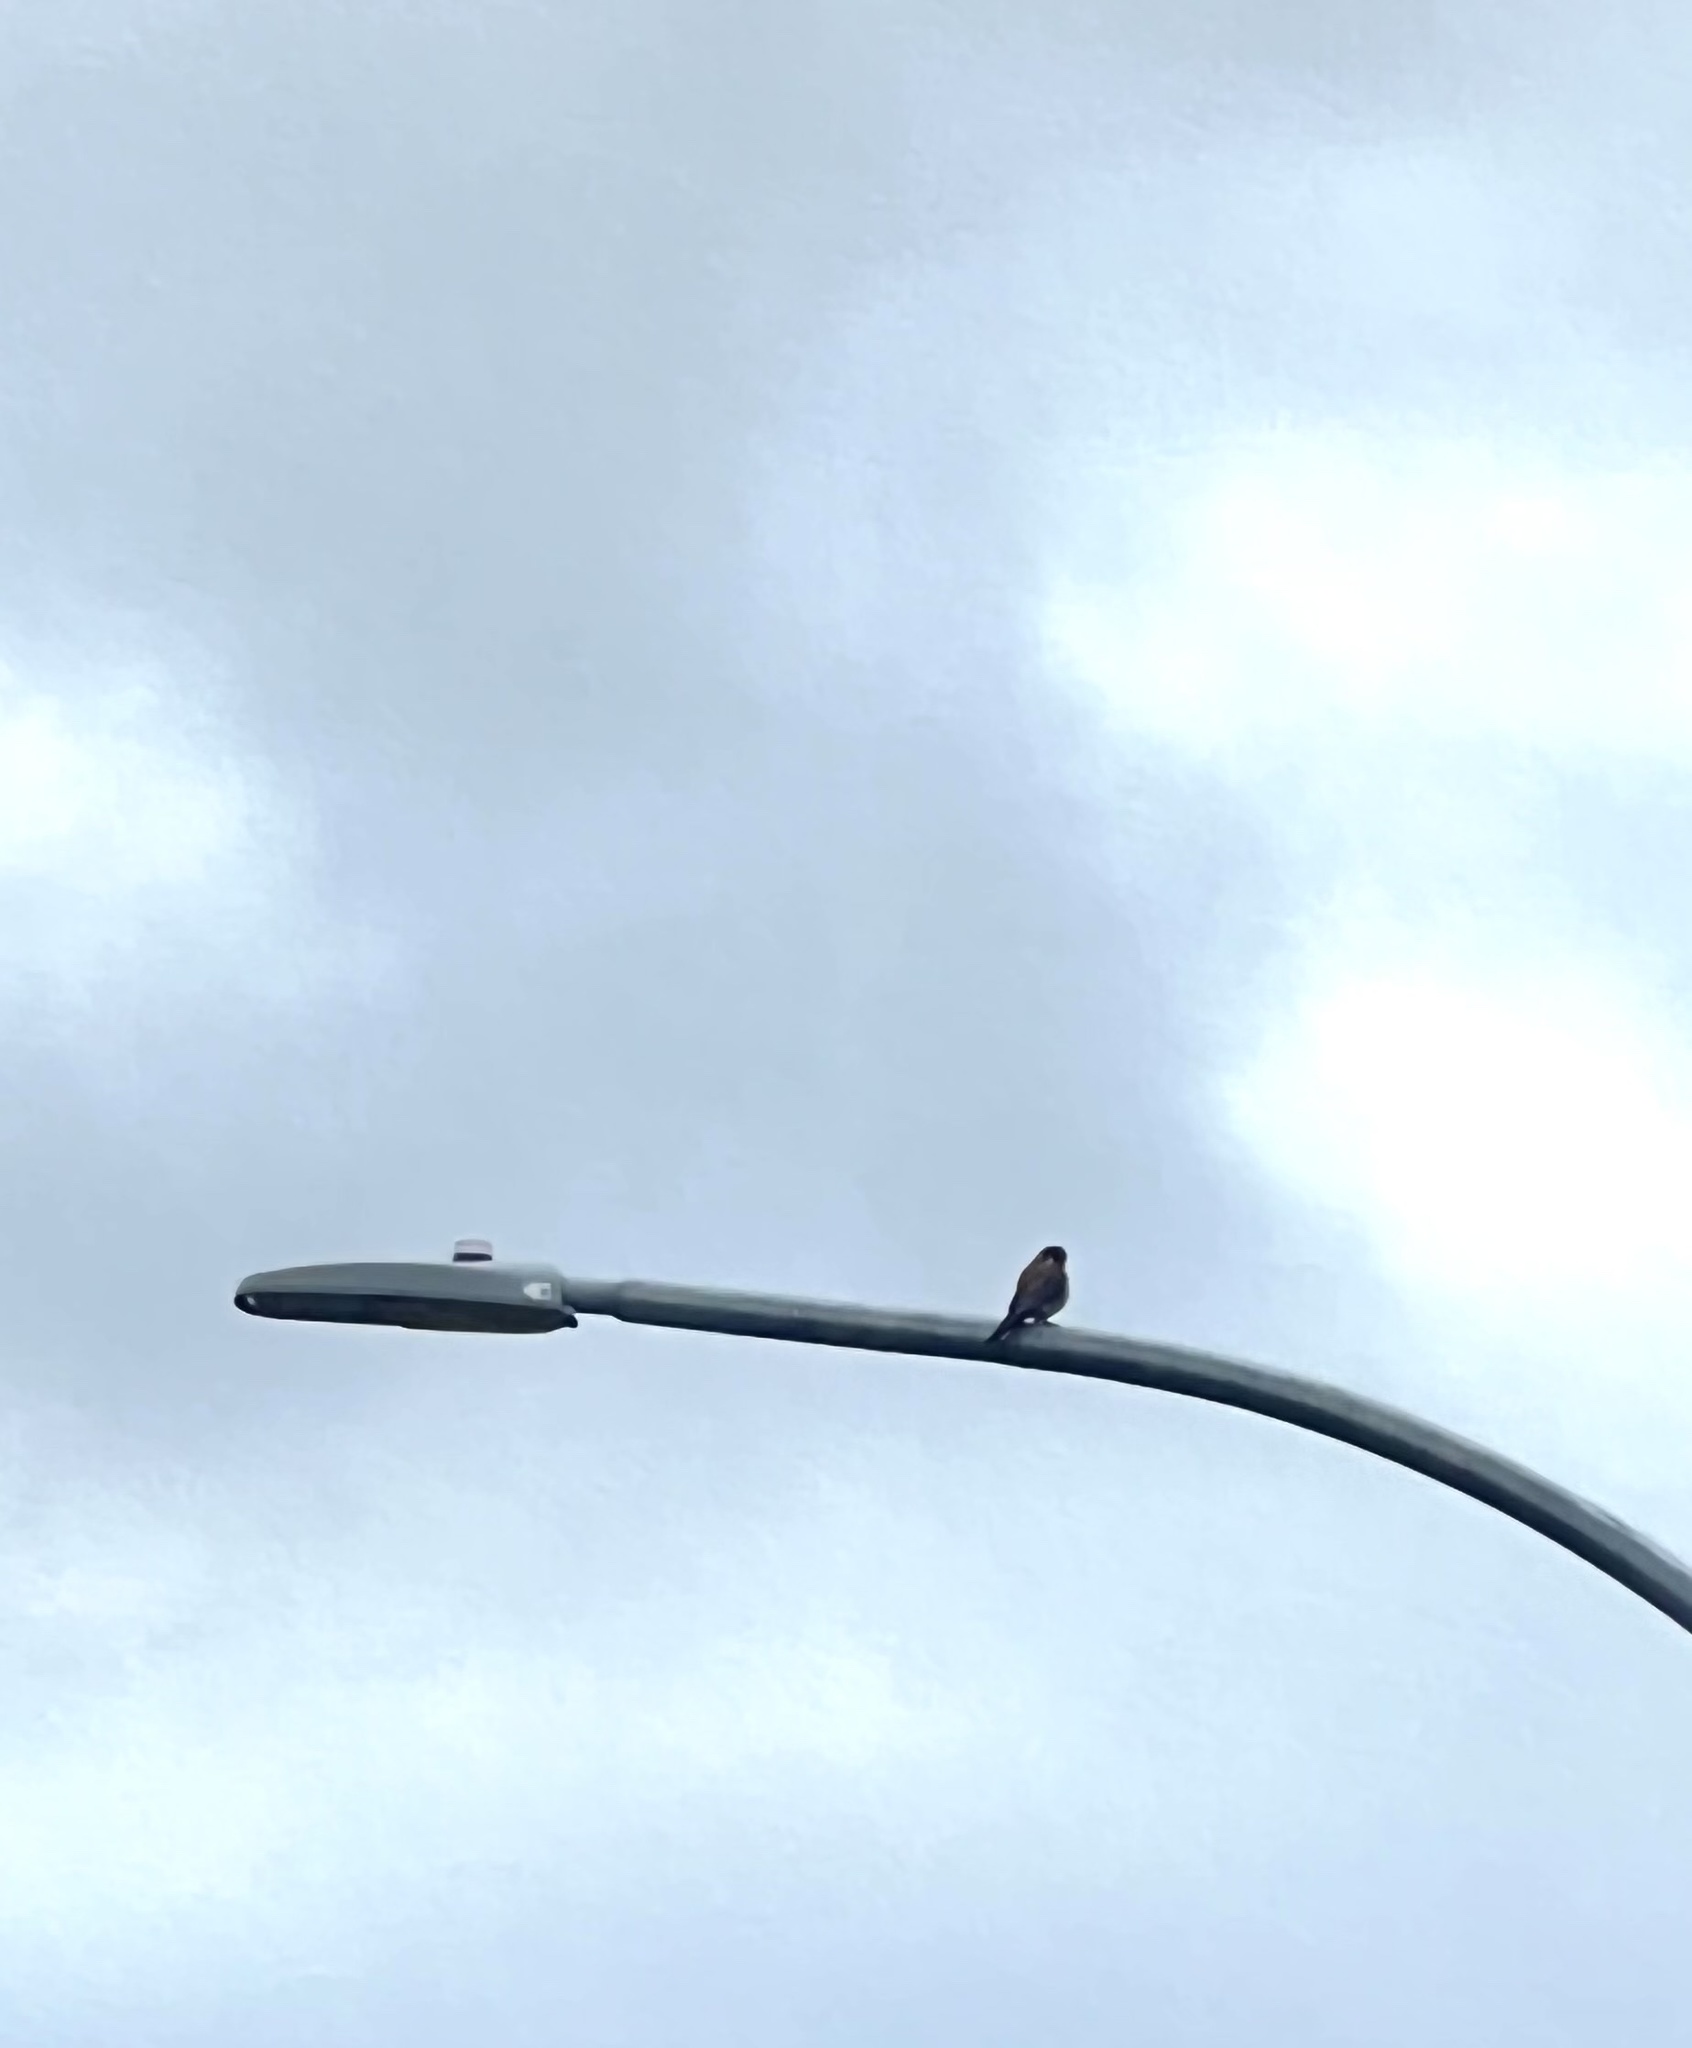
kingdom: Animalia
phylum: Chordata
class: Aves
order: Falconiformes
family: Falconidae
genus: Falco
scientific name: Falco sparverius
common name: American kestrel
